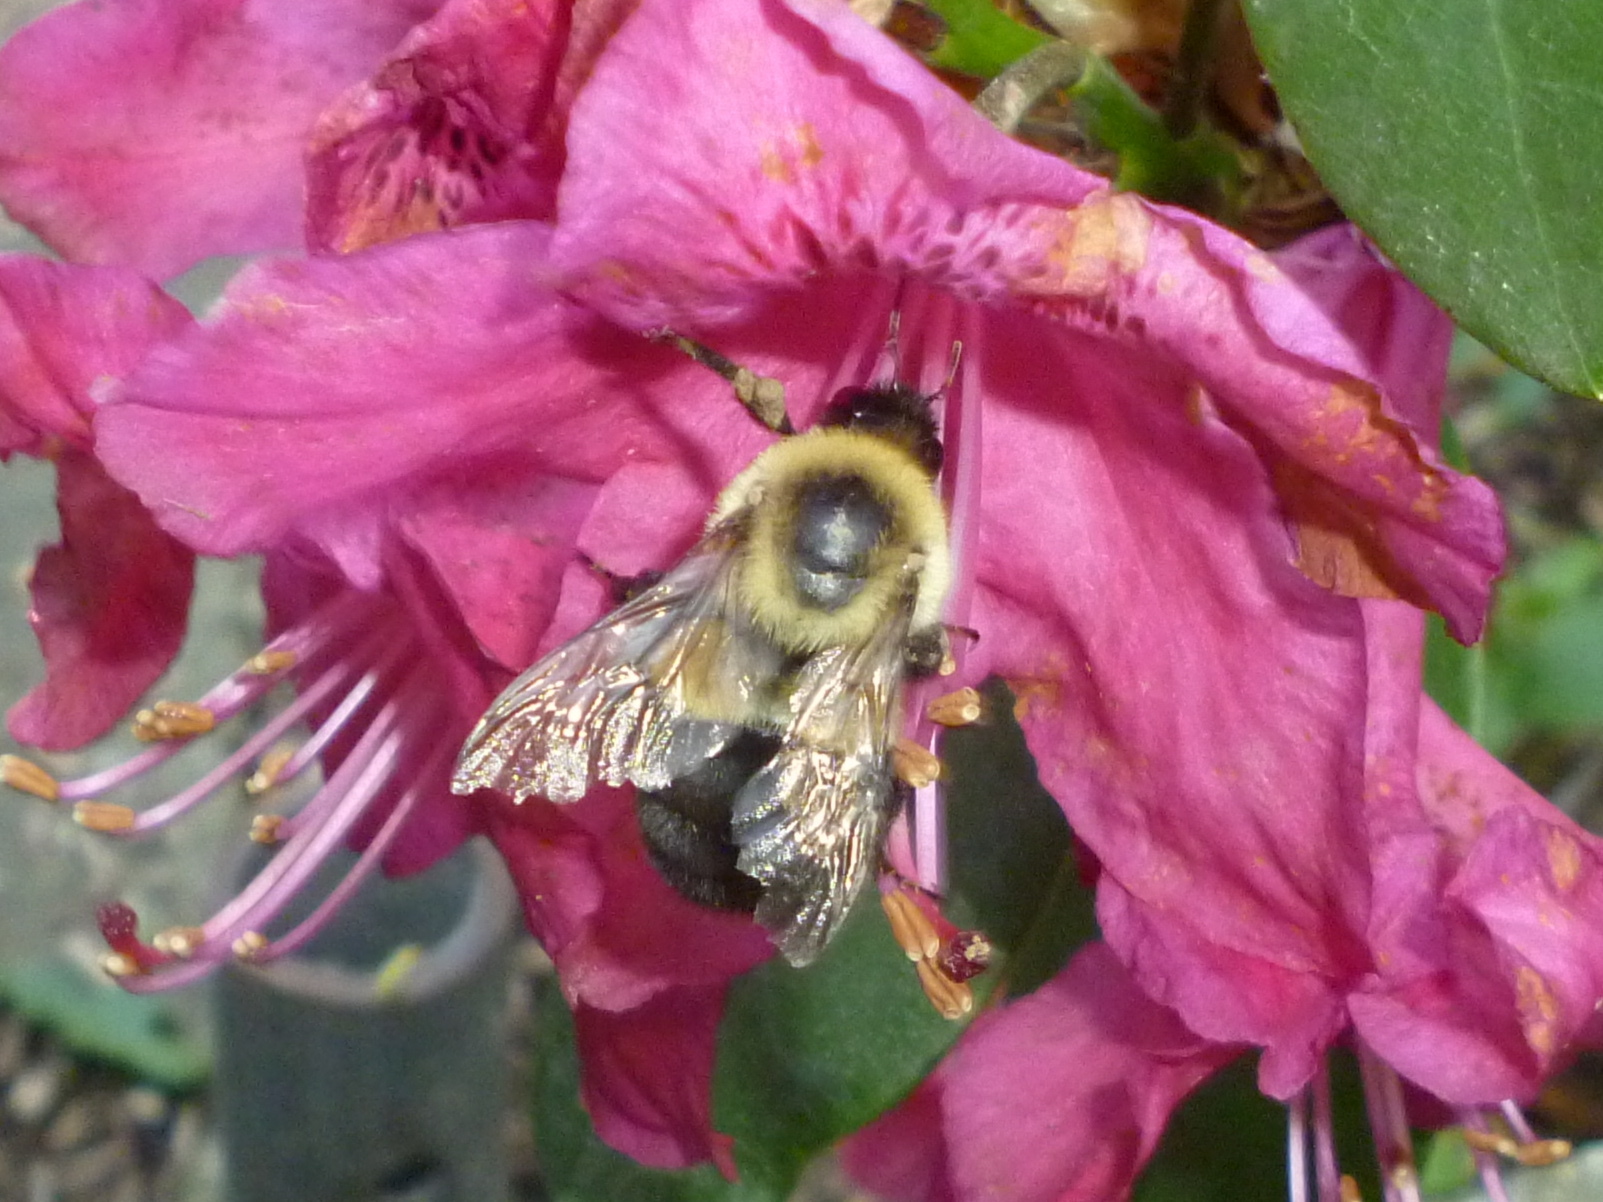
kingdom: Animalia
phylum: Arthropoda
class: Insecta
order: Hymenoptera
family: Apidae
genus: Bombus
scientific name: Bombus impatiens
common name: Common eastern bumble bee
